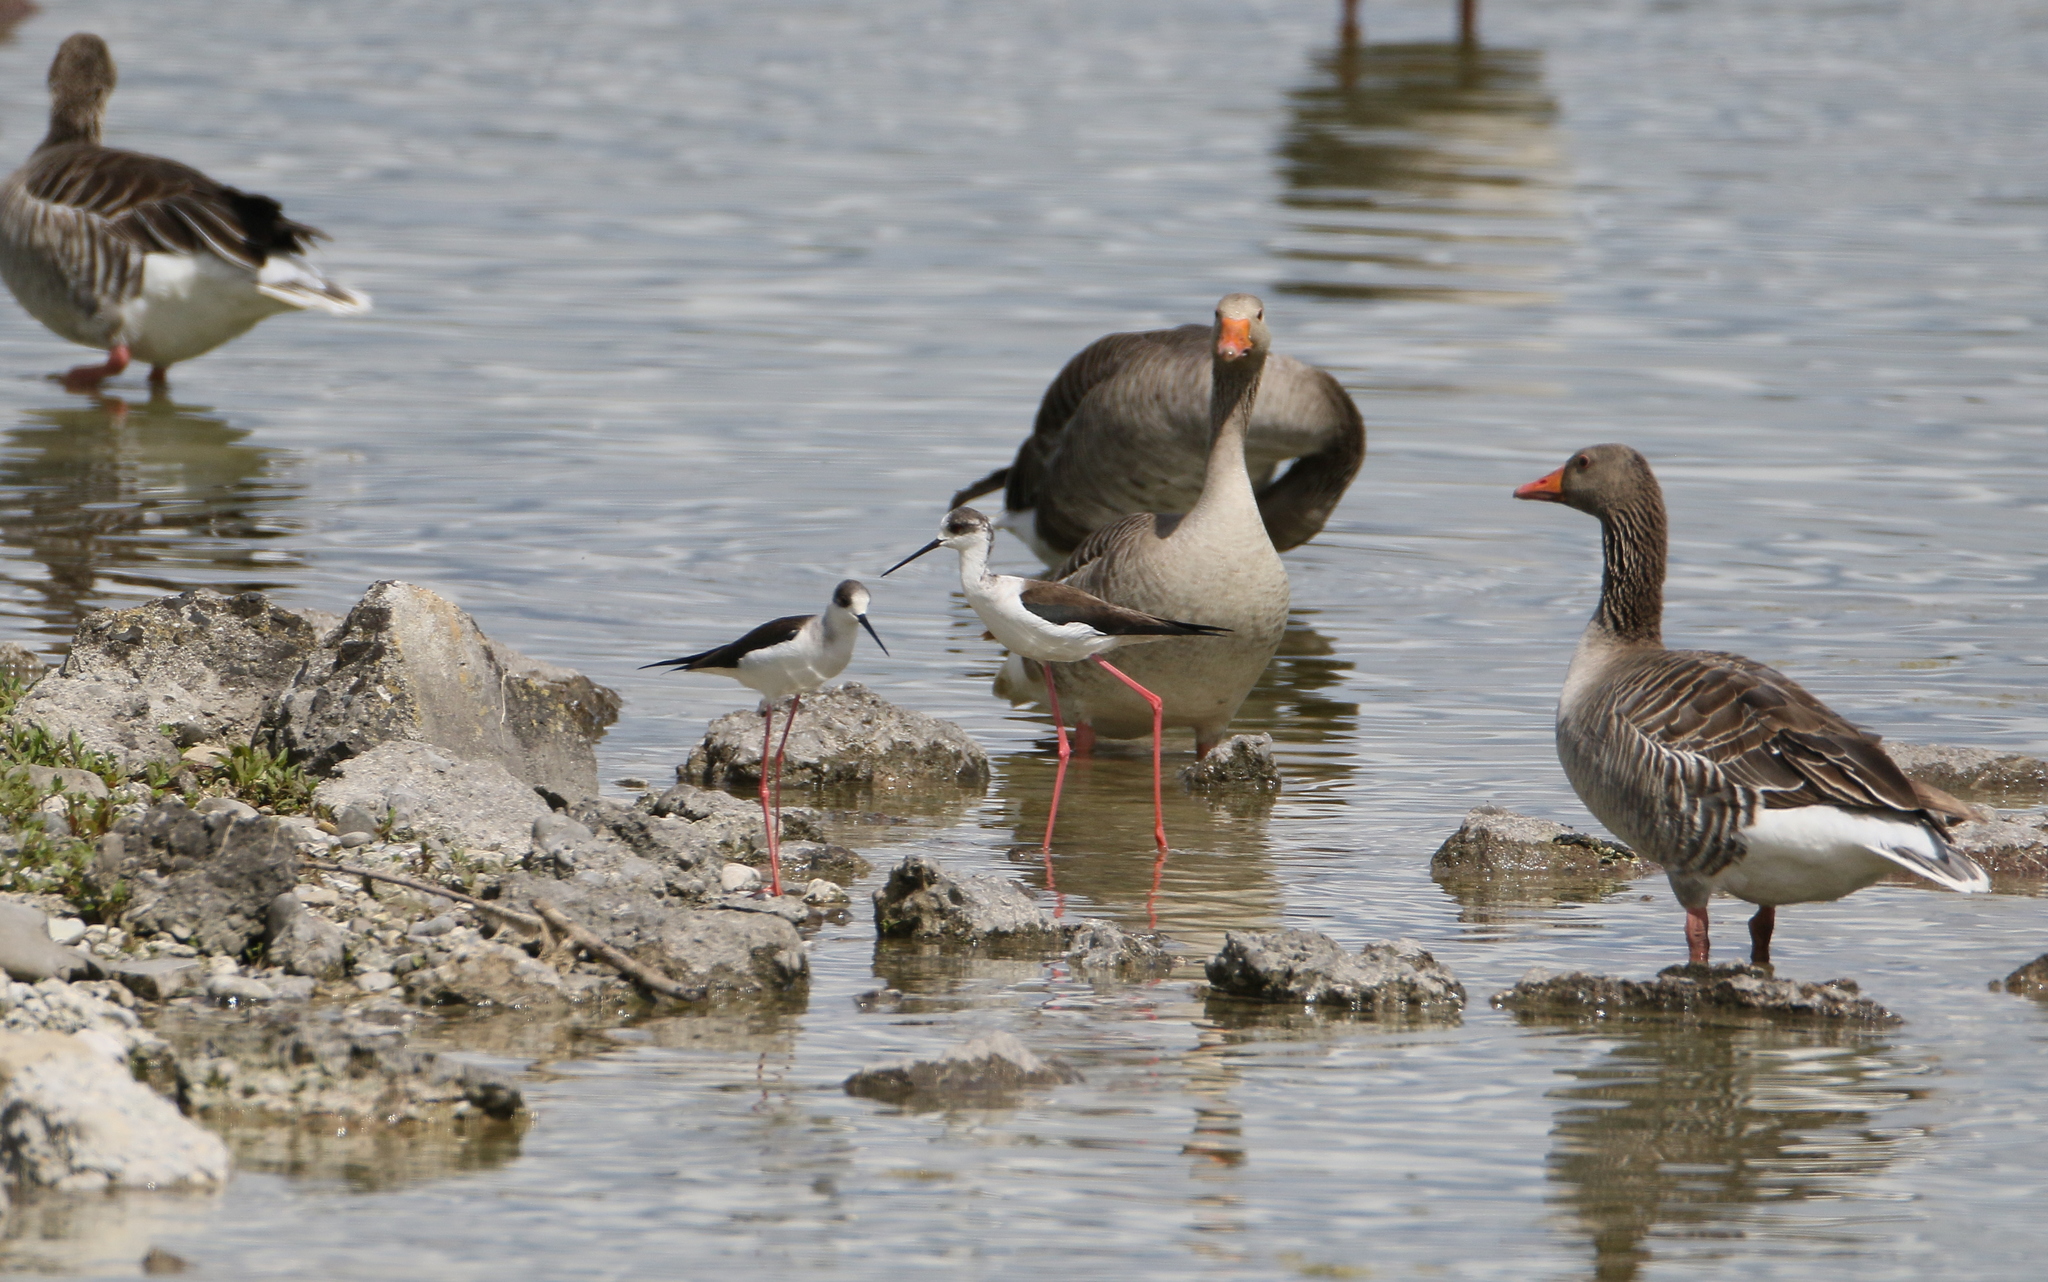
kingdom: Animalia
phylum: Chordata
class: Aves
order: Charadriiformes
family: Recurvirostridae
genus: Himantopus
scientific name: Himantopus himantopus
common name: Black-winged stilt
